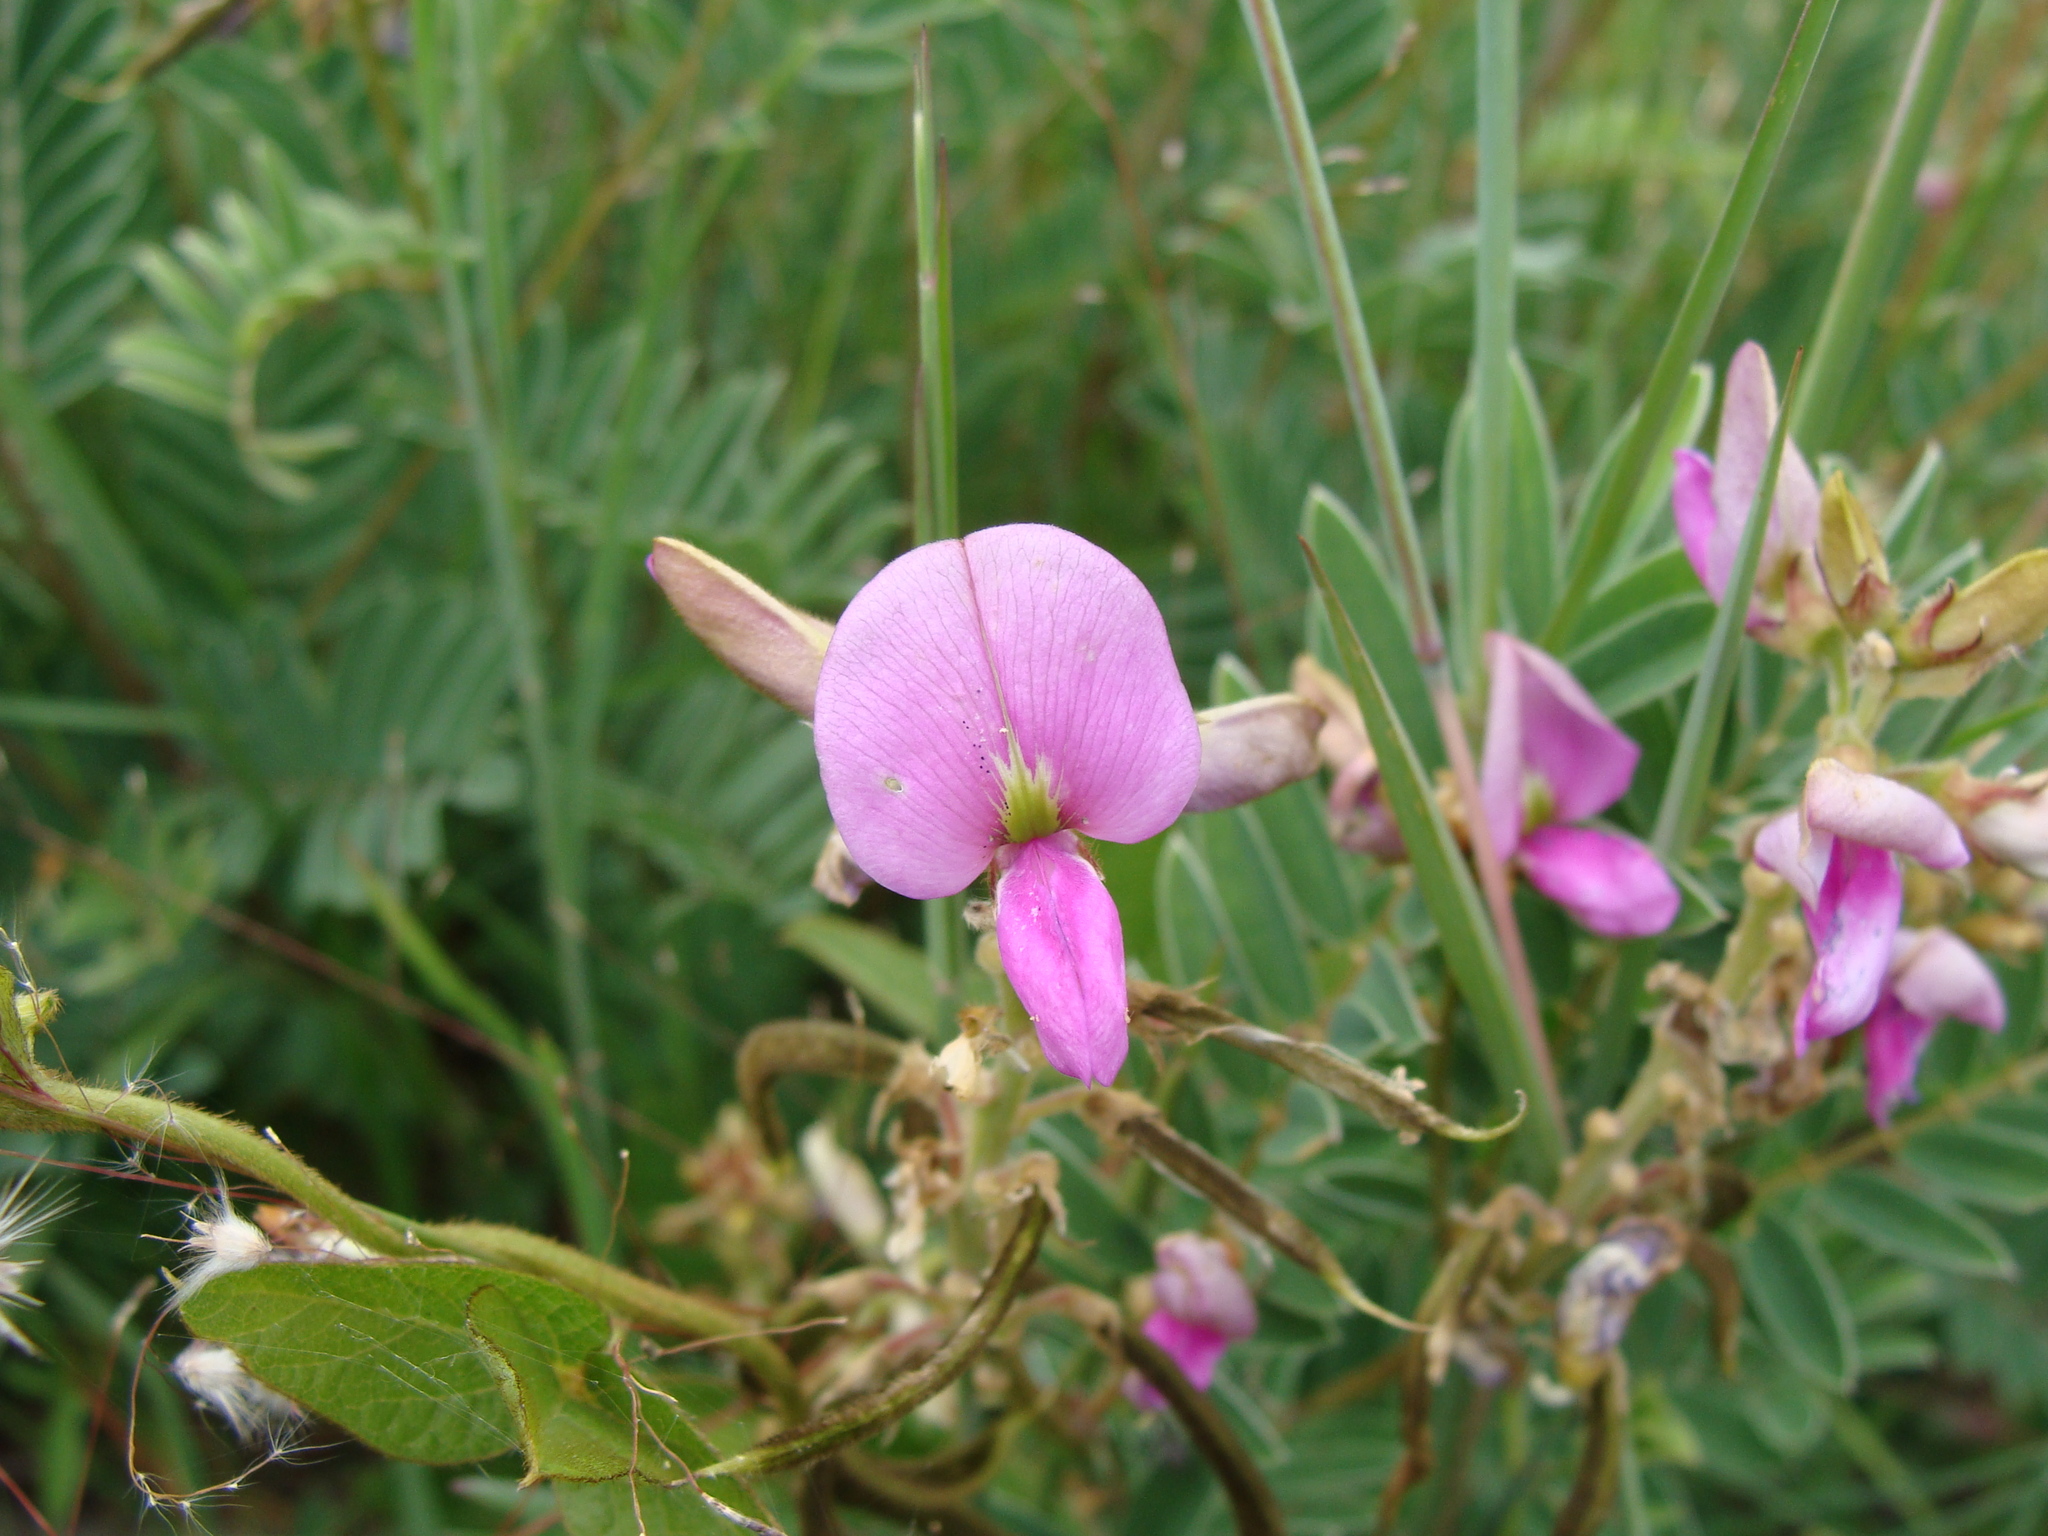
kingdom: Plantae
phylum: Tracheophyta
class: Magnoliopsida
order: Fabales
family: Fabaceae
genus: Tephrosia
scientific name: Tephrosia nicaraguensis
